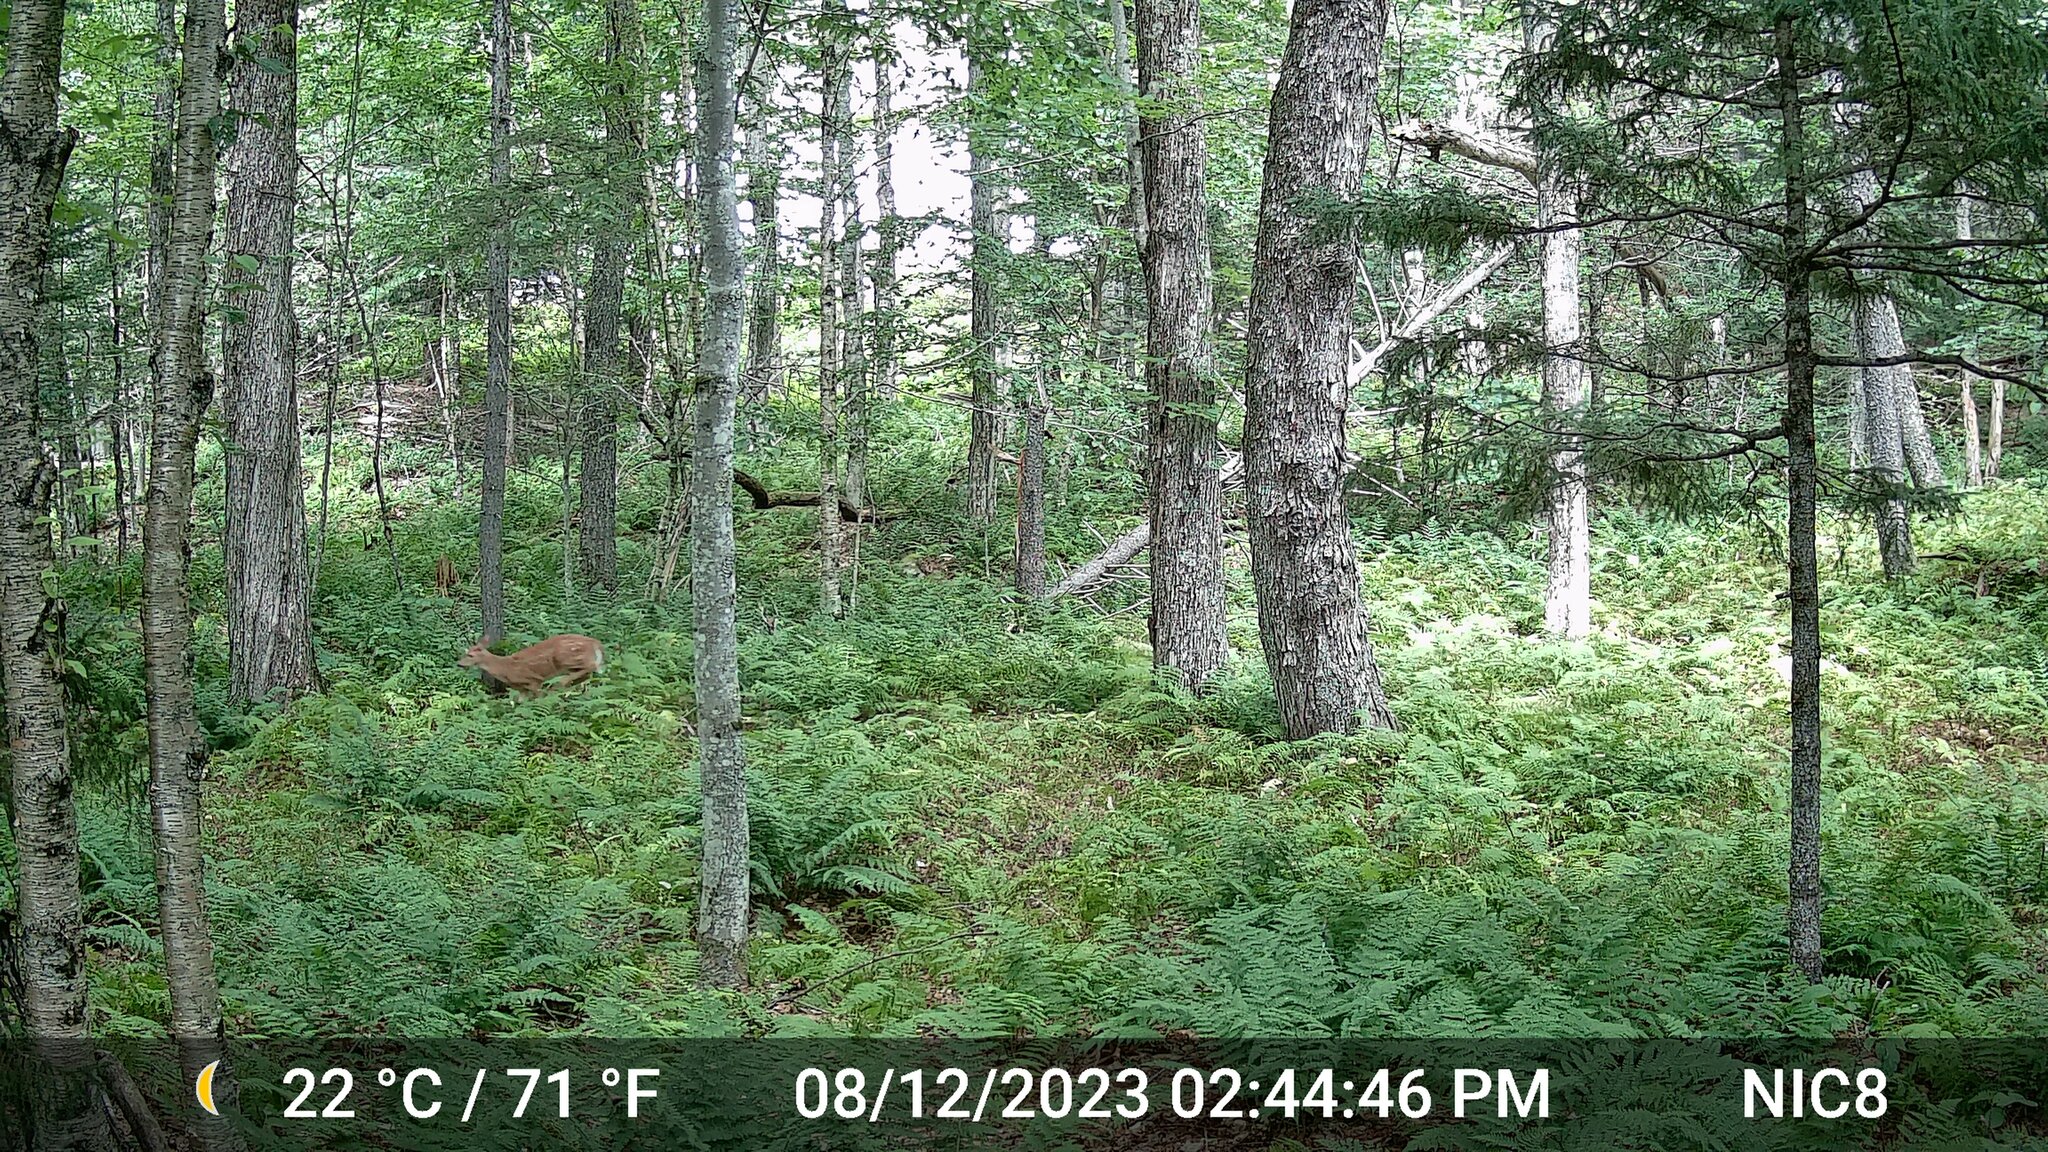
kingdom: Animalia
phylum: Chordata
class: Mammalia
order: Artiodactyla
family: Cervidae
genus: Odocoileus
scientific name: Odocoileus virginianus
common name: White-tailed deer
